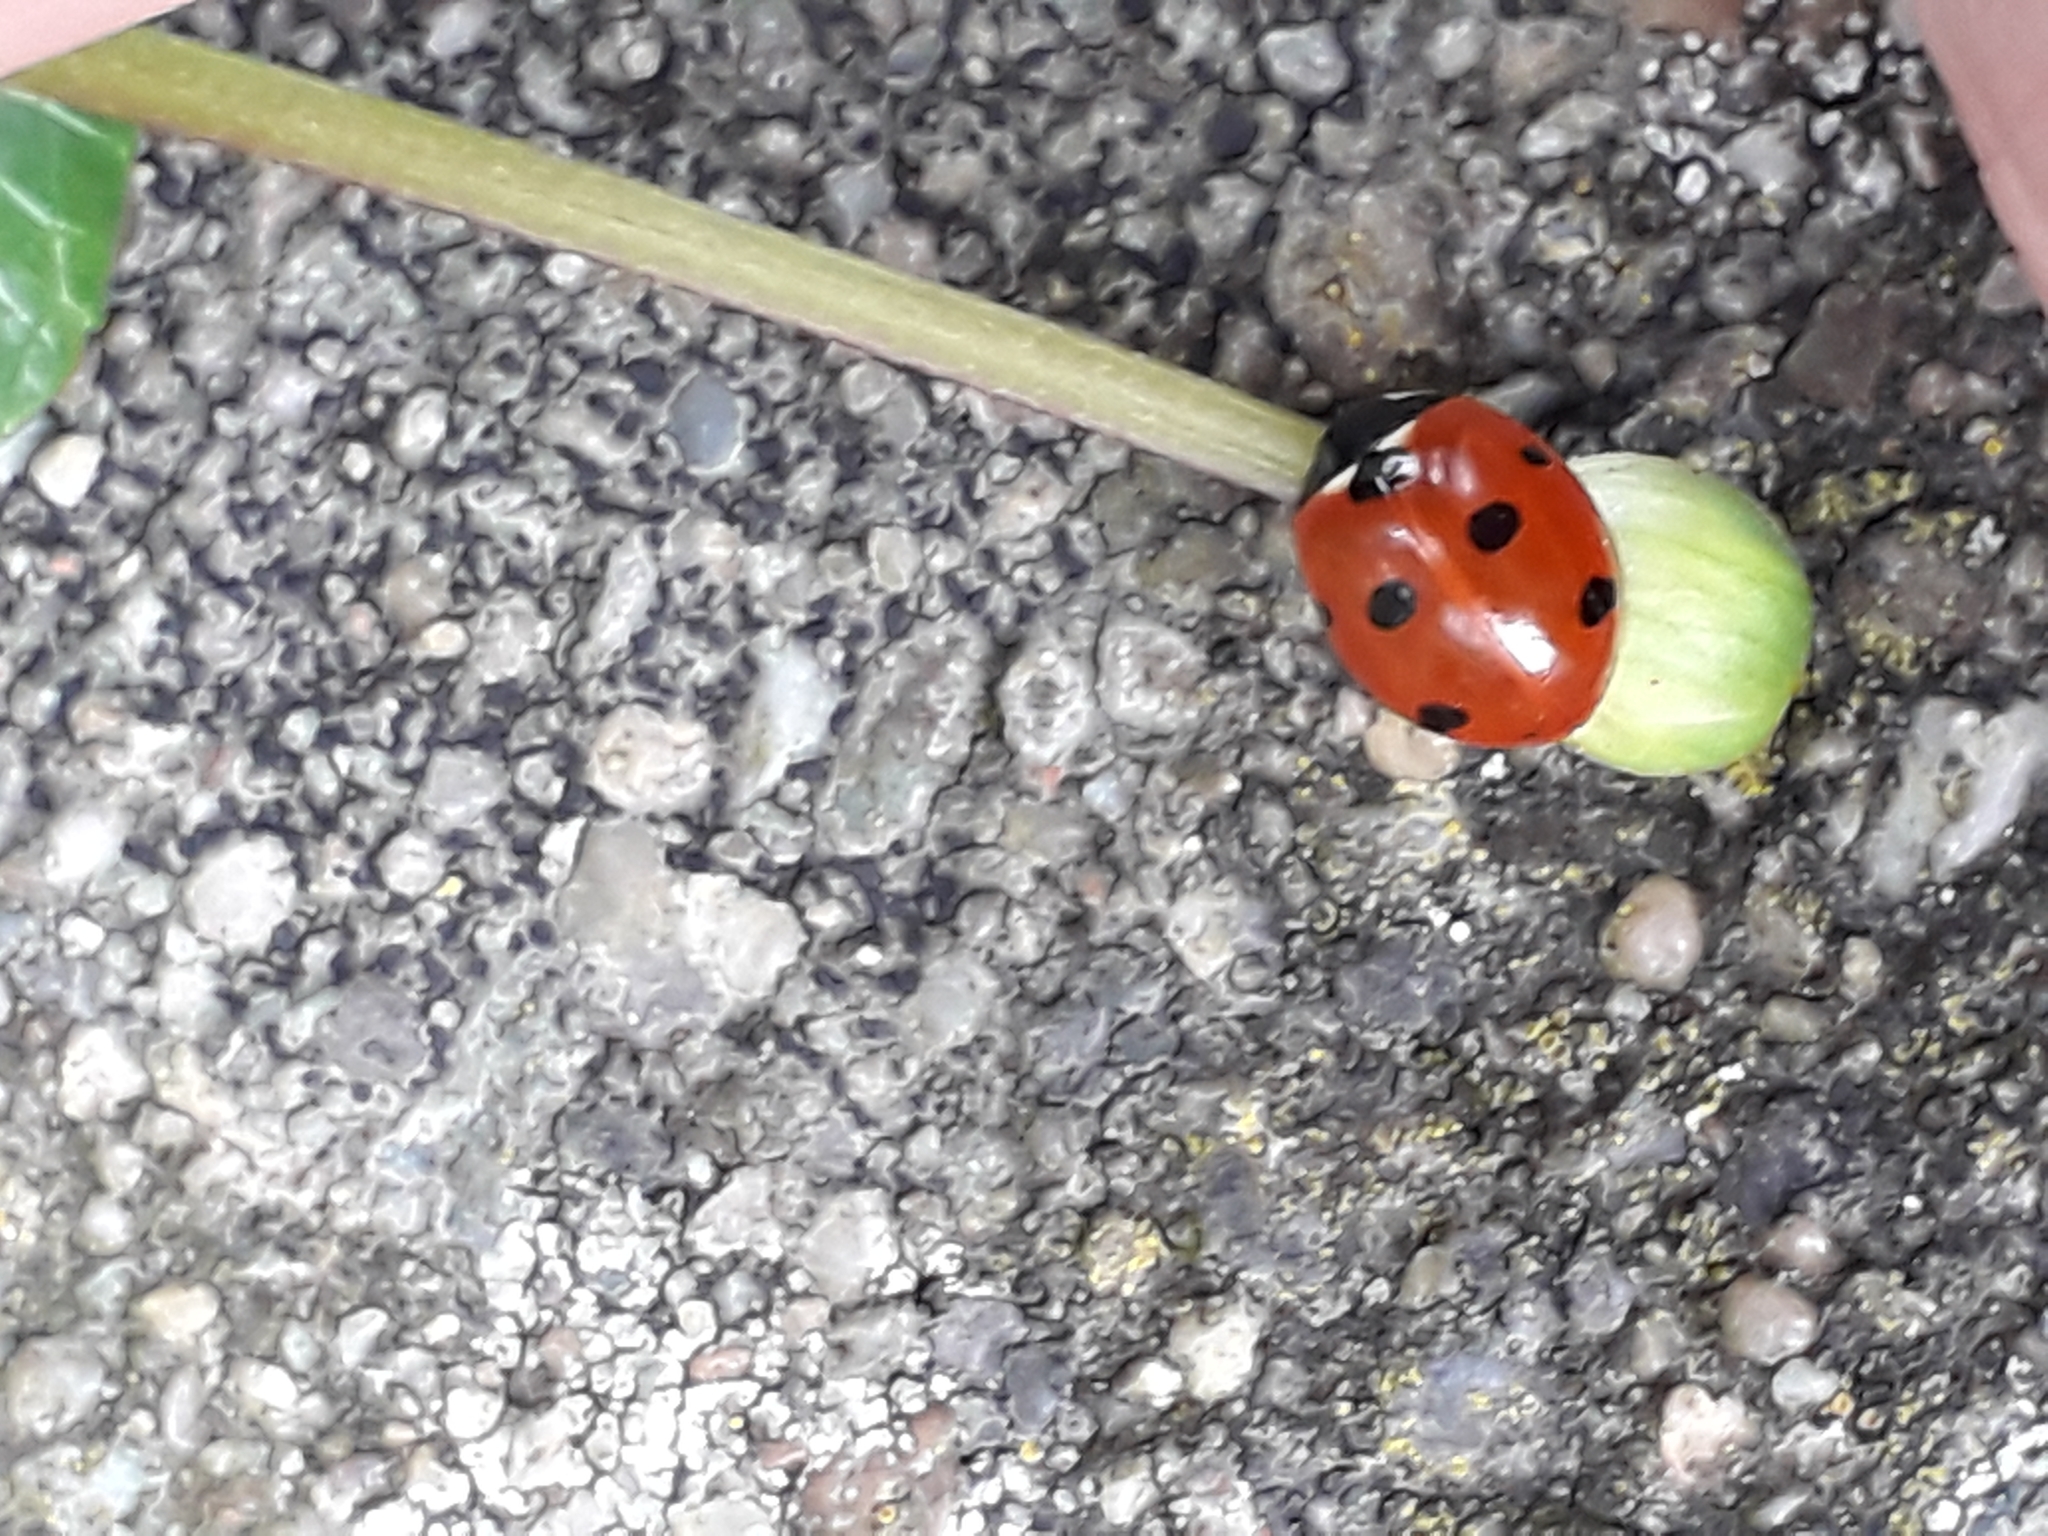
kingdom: Animalia
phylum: Arthropoda
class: Insecta
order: Coleoptera
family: Coccinellidae
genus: Coccinella
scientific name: Coccinella septempunctata
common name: Sevenspotted lady beetle
